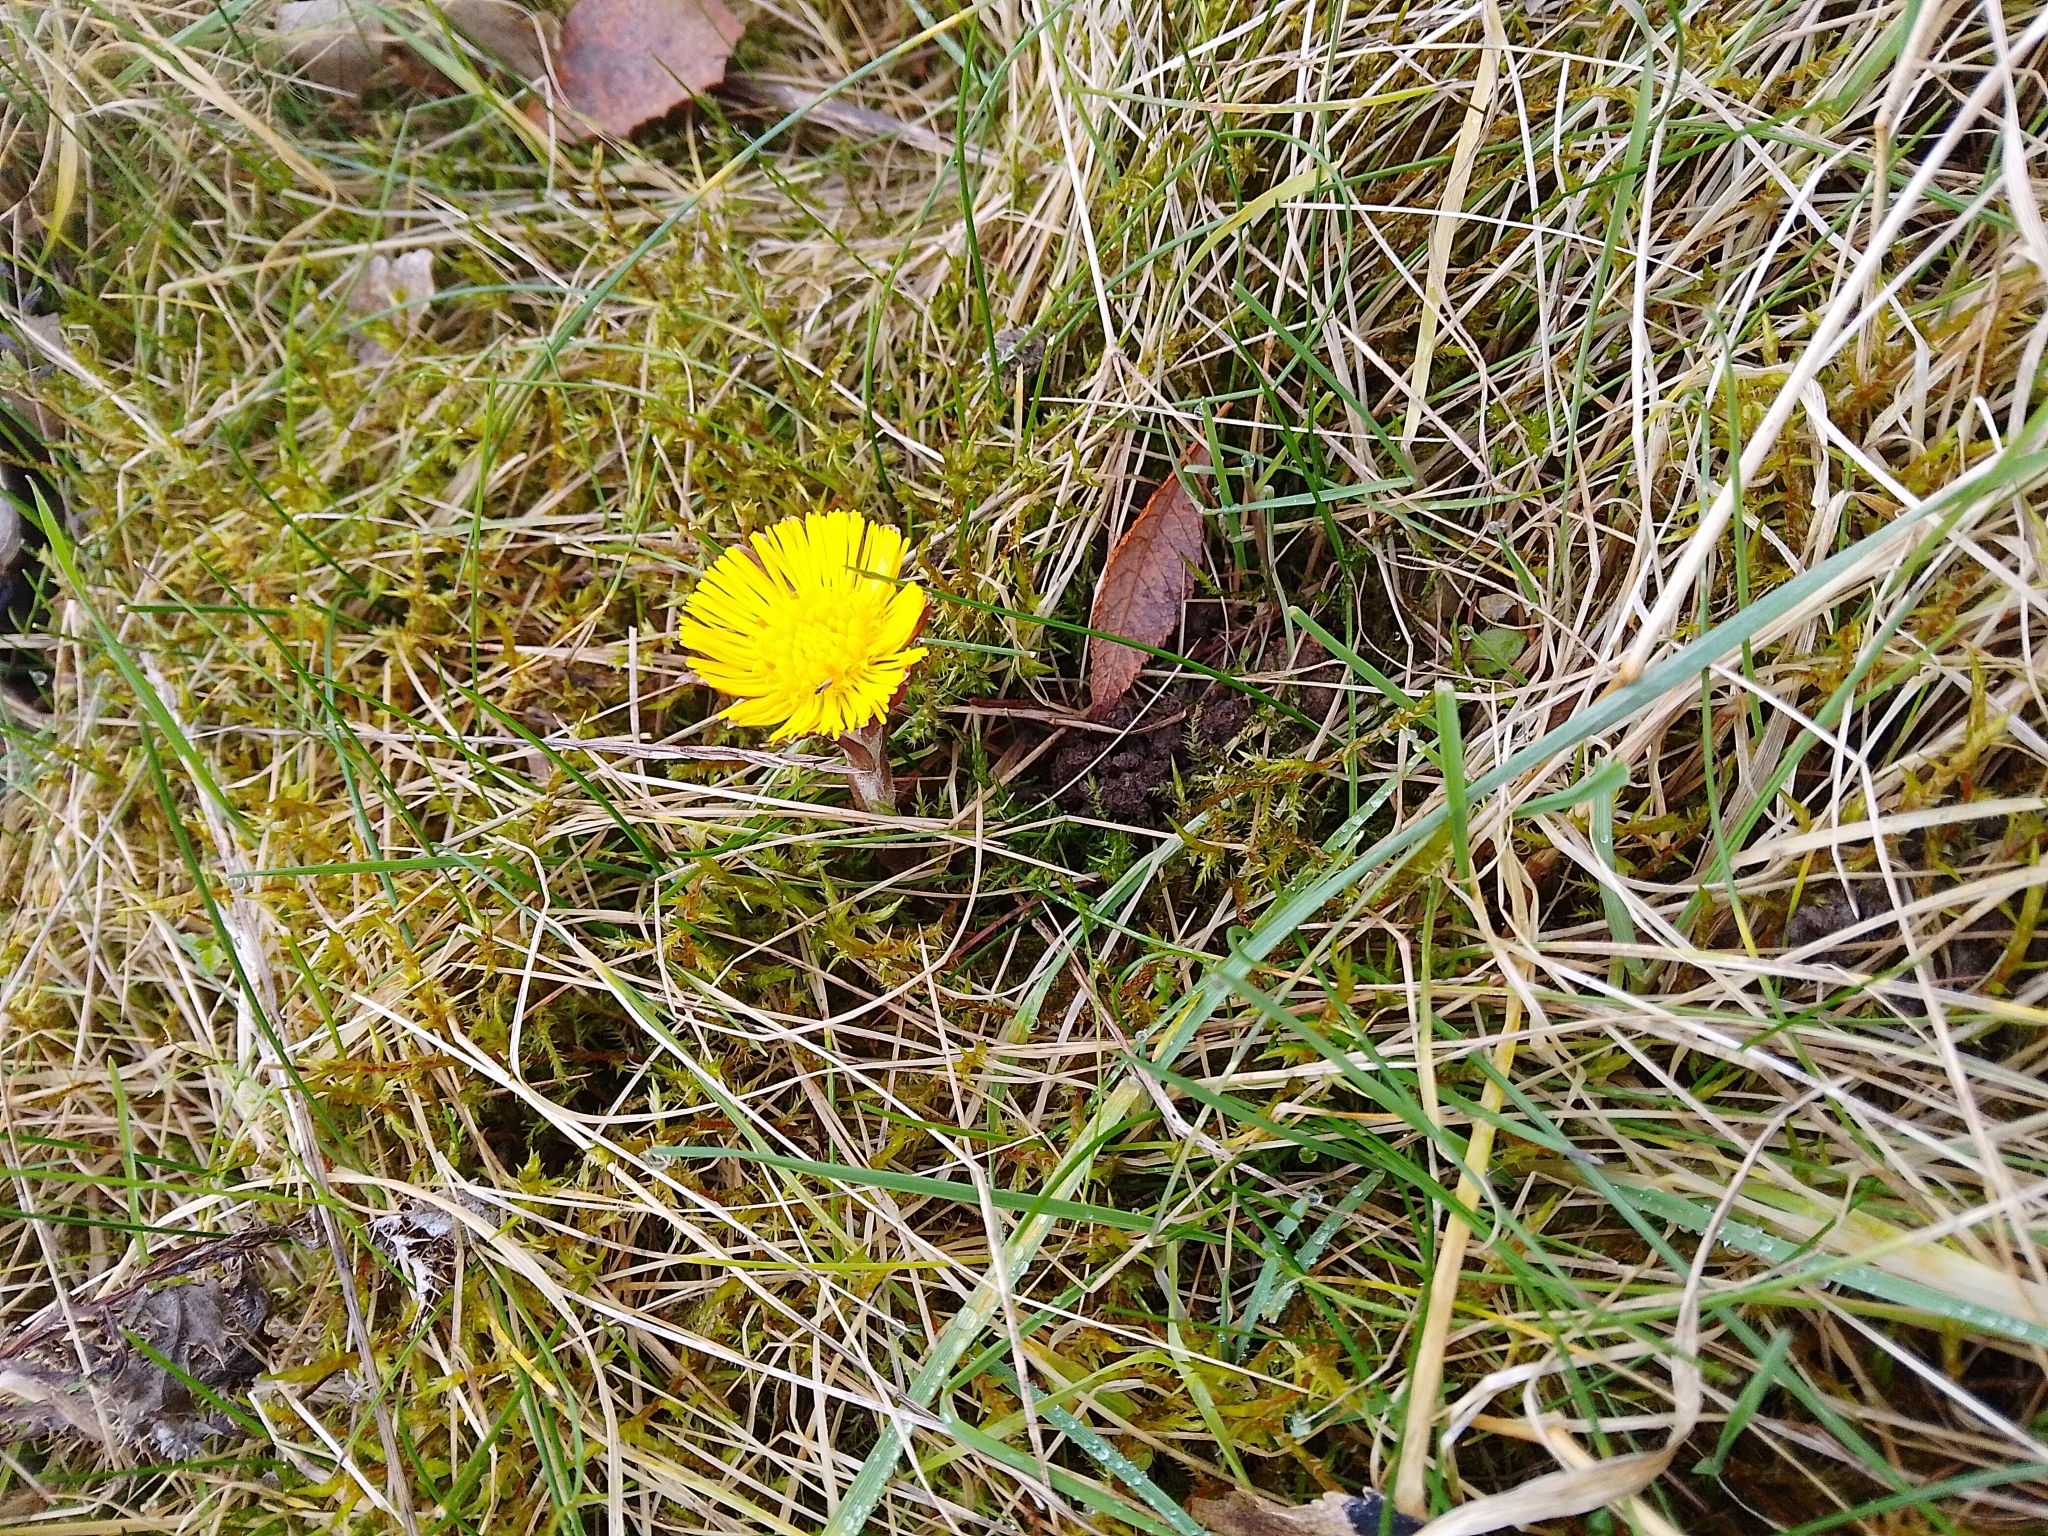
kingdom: Plantae
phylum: Tracheophyta
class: Magnoliopsida
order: Asterales
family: Asteraceae
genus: Tussilago
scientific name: Tussilago farfara
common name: Coltsfoot
